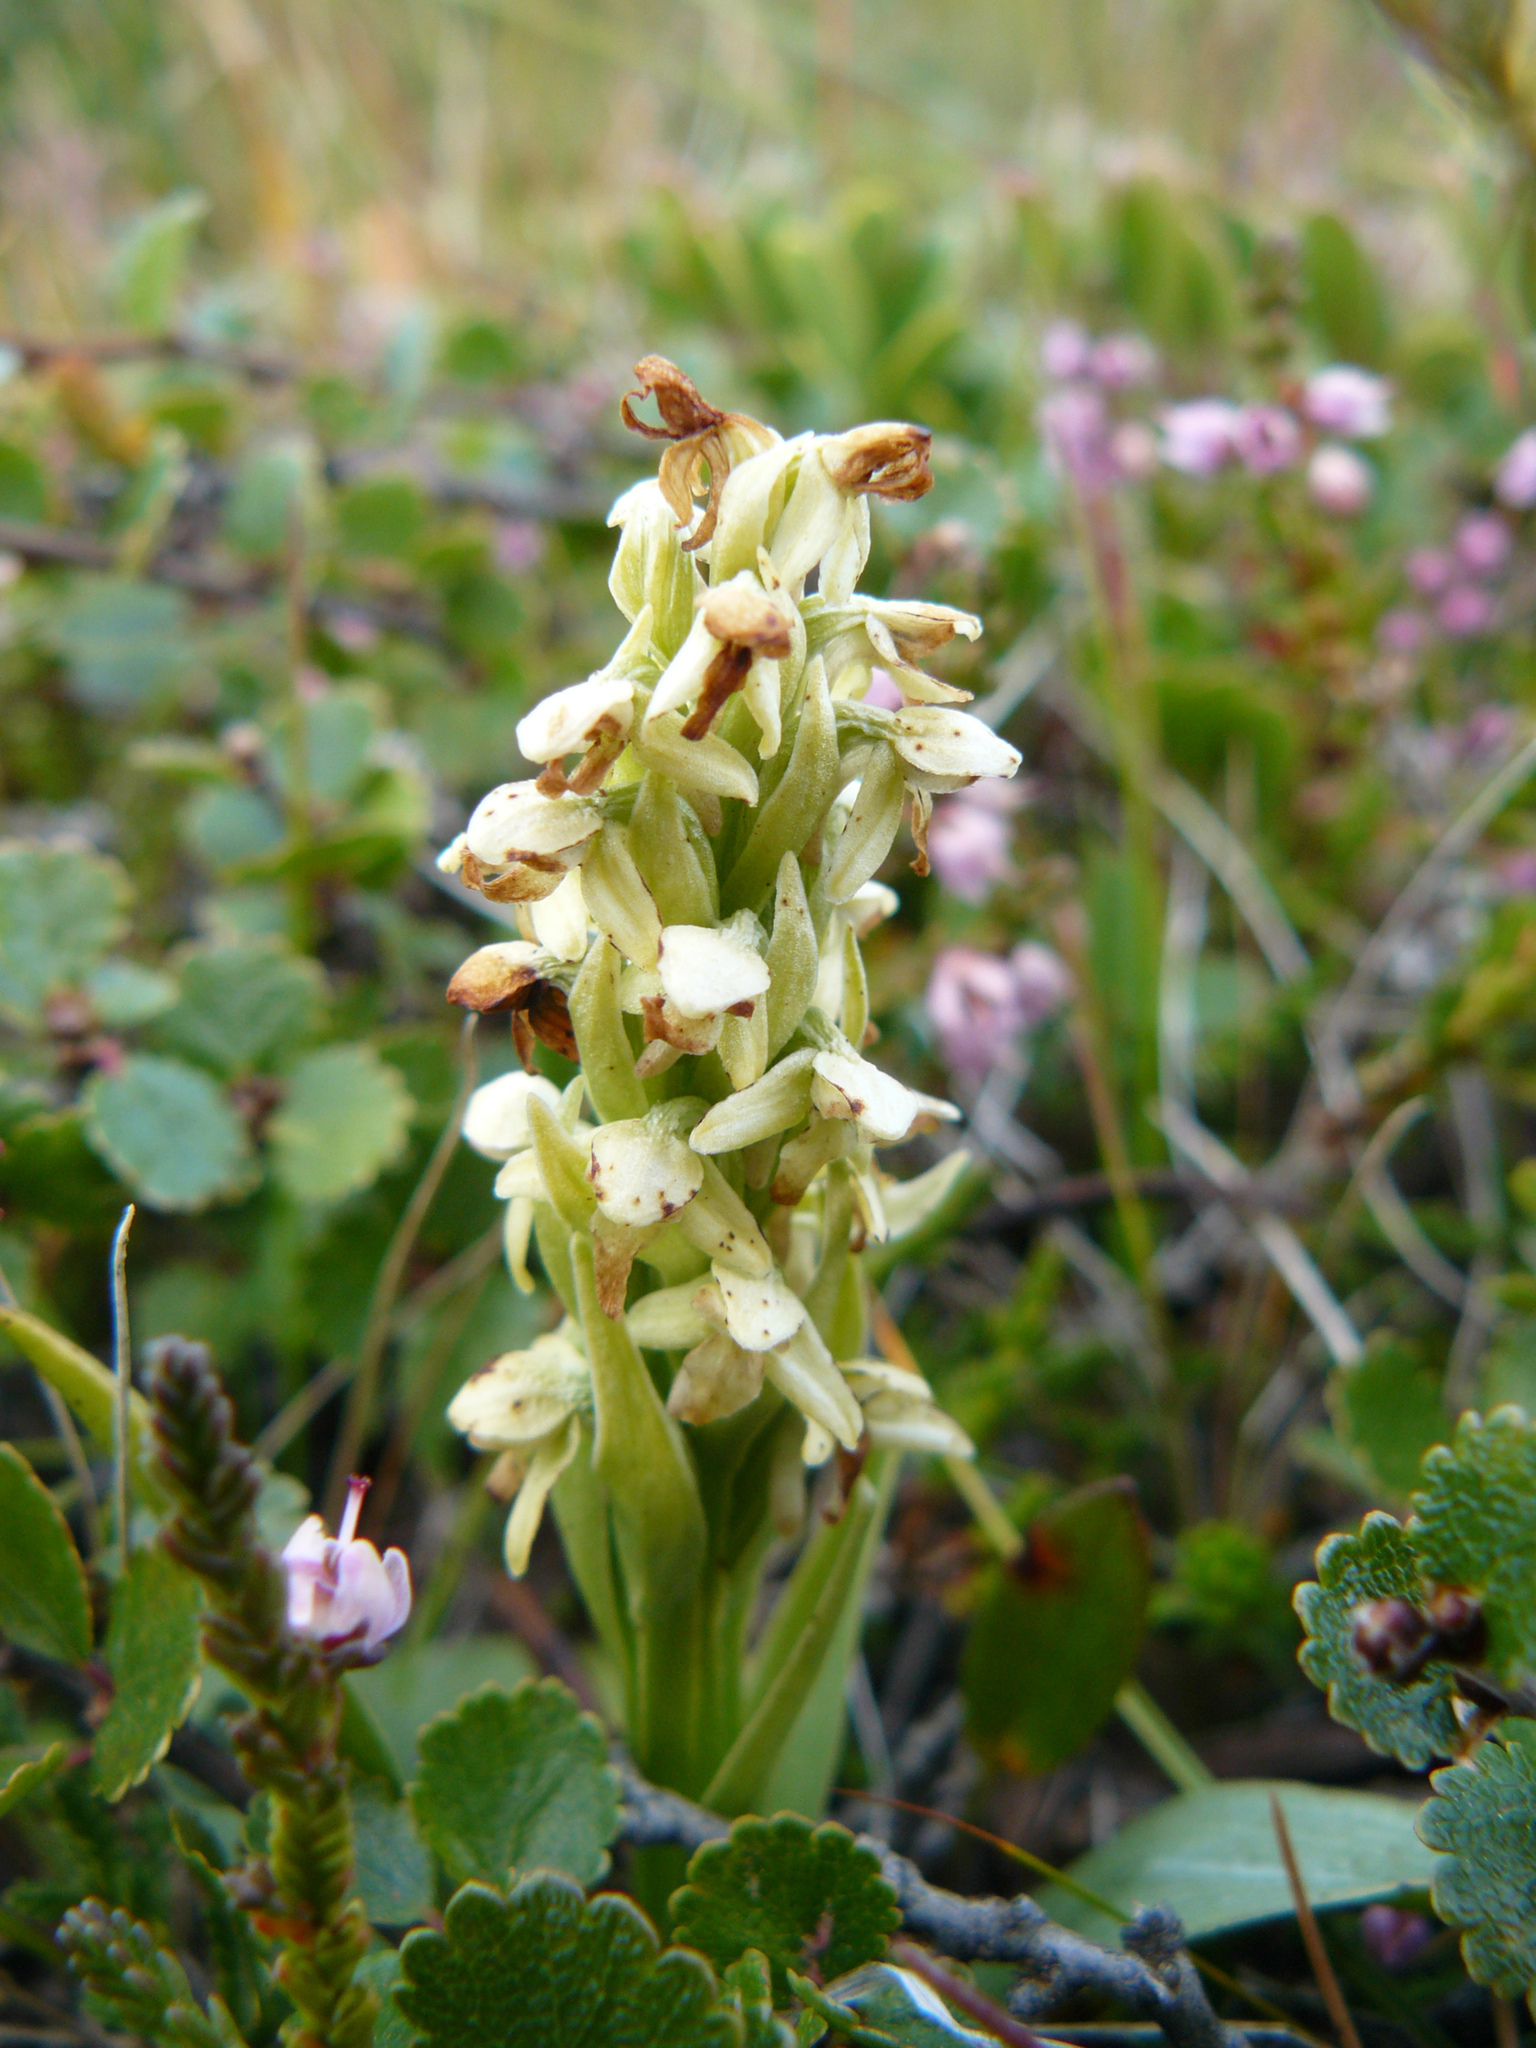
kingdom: Plantae
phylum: Tracheophyta
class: Liliopsida
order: Asparagales
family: Orchidaceae
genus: Platanthera
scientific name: Platanthera hyperborea
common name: Northern green orchid
